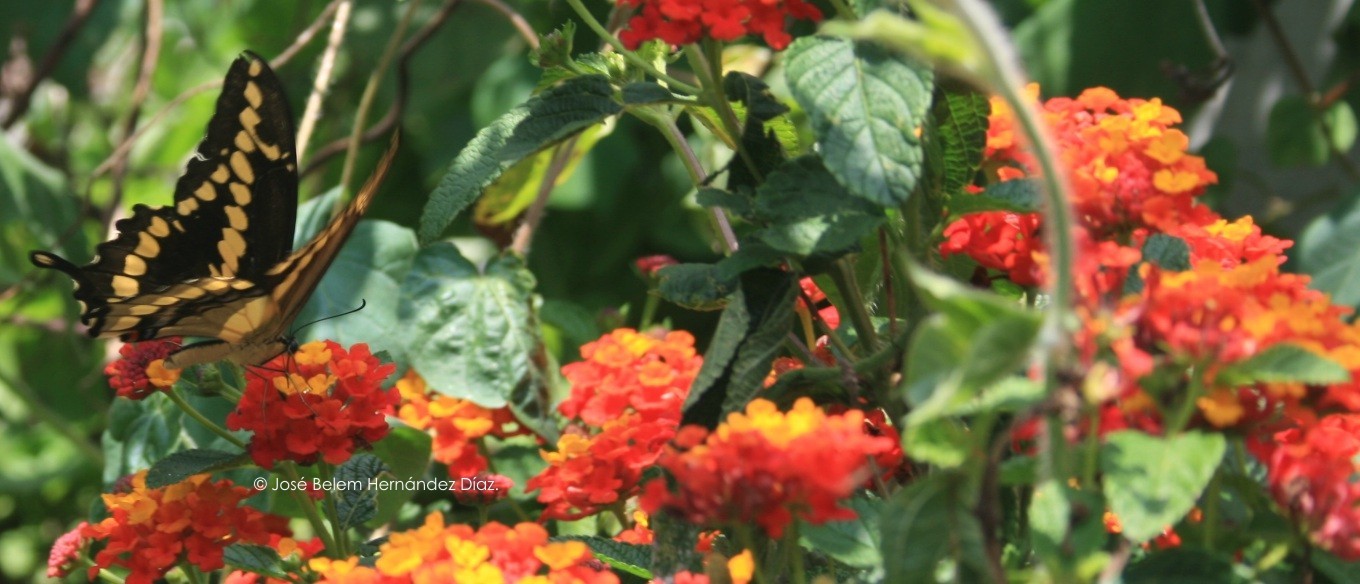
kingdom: Animalia
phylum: Arthropoda
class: Insecta
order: Lepidoptera
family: Papilionidae
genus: Papilio
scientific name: Papilio rumiko
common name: Western giant swallowtail
